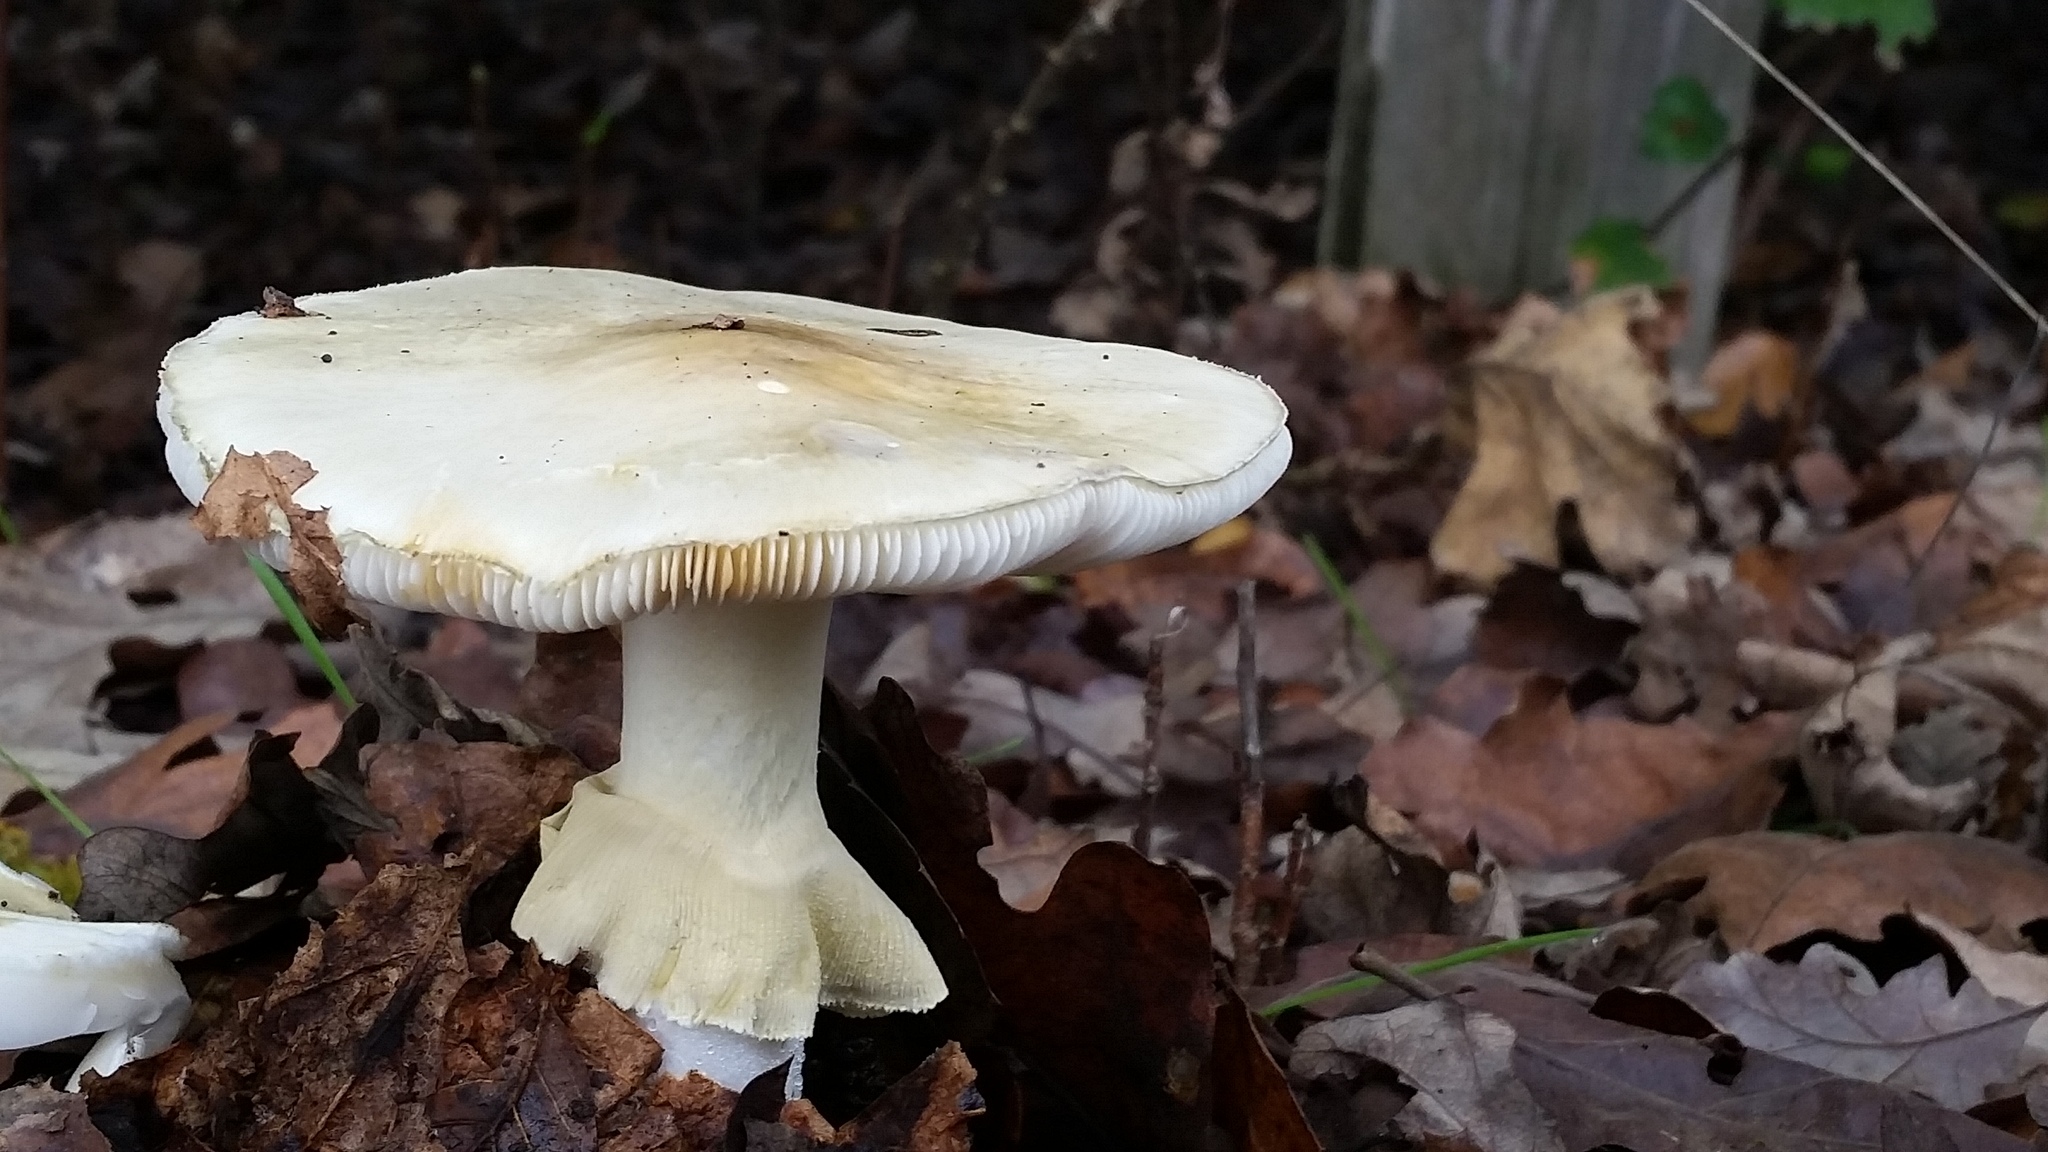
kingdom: Fungi
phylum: Basidiomycota
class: Agaricomycetes
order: Agaricales
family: Amanitaceae
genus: Amanita
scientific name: Amanita phalloides
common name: Death cap
